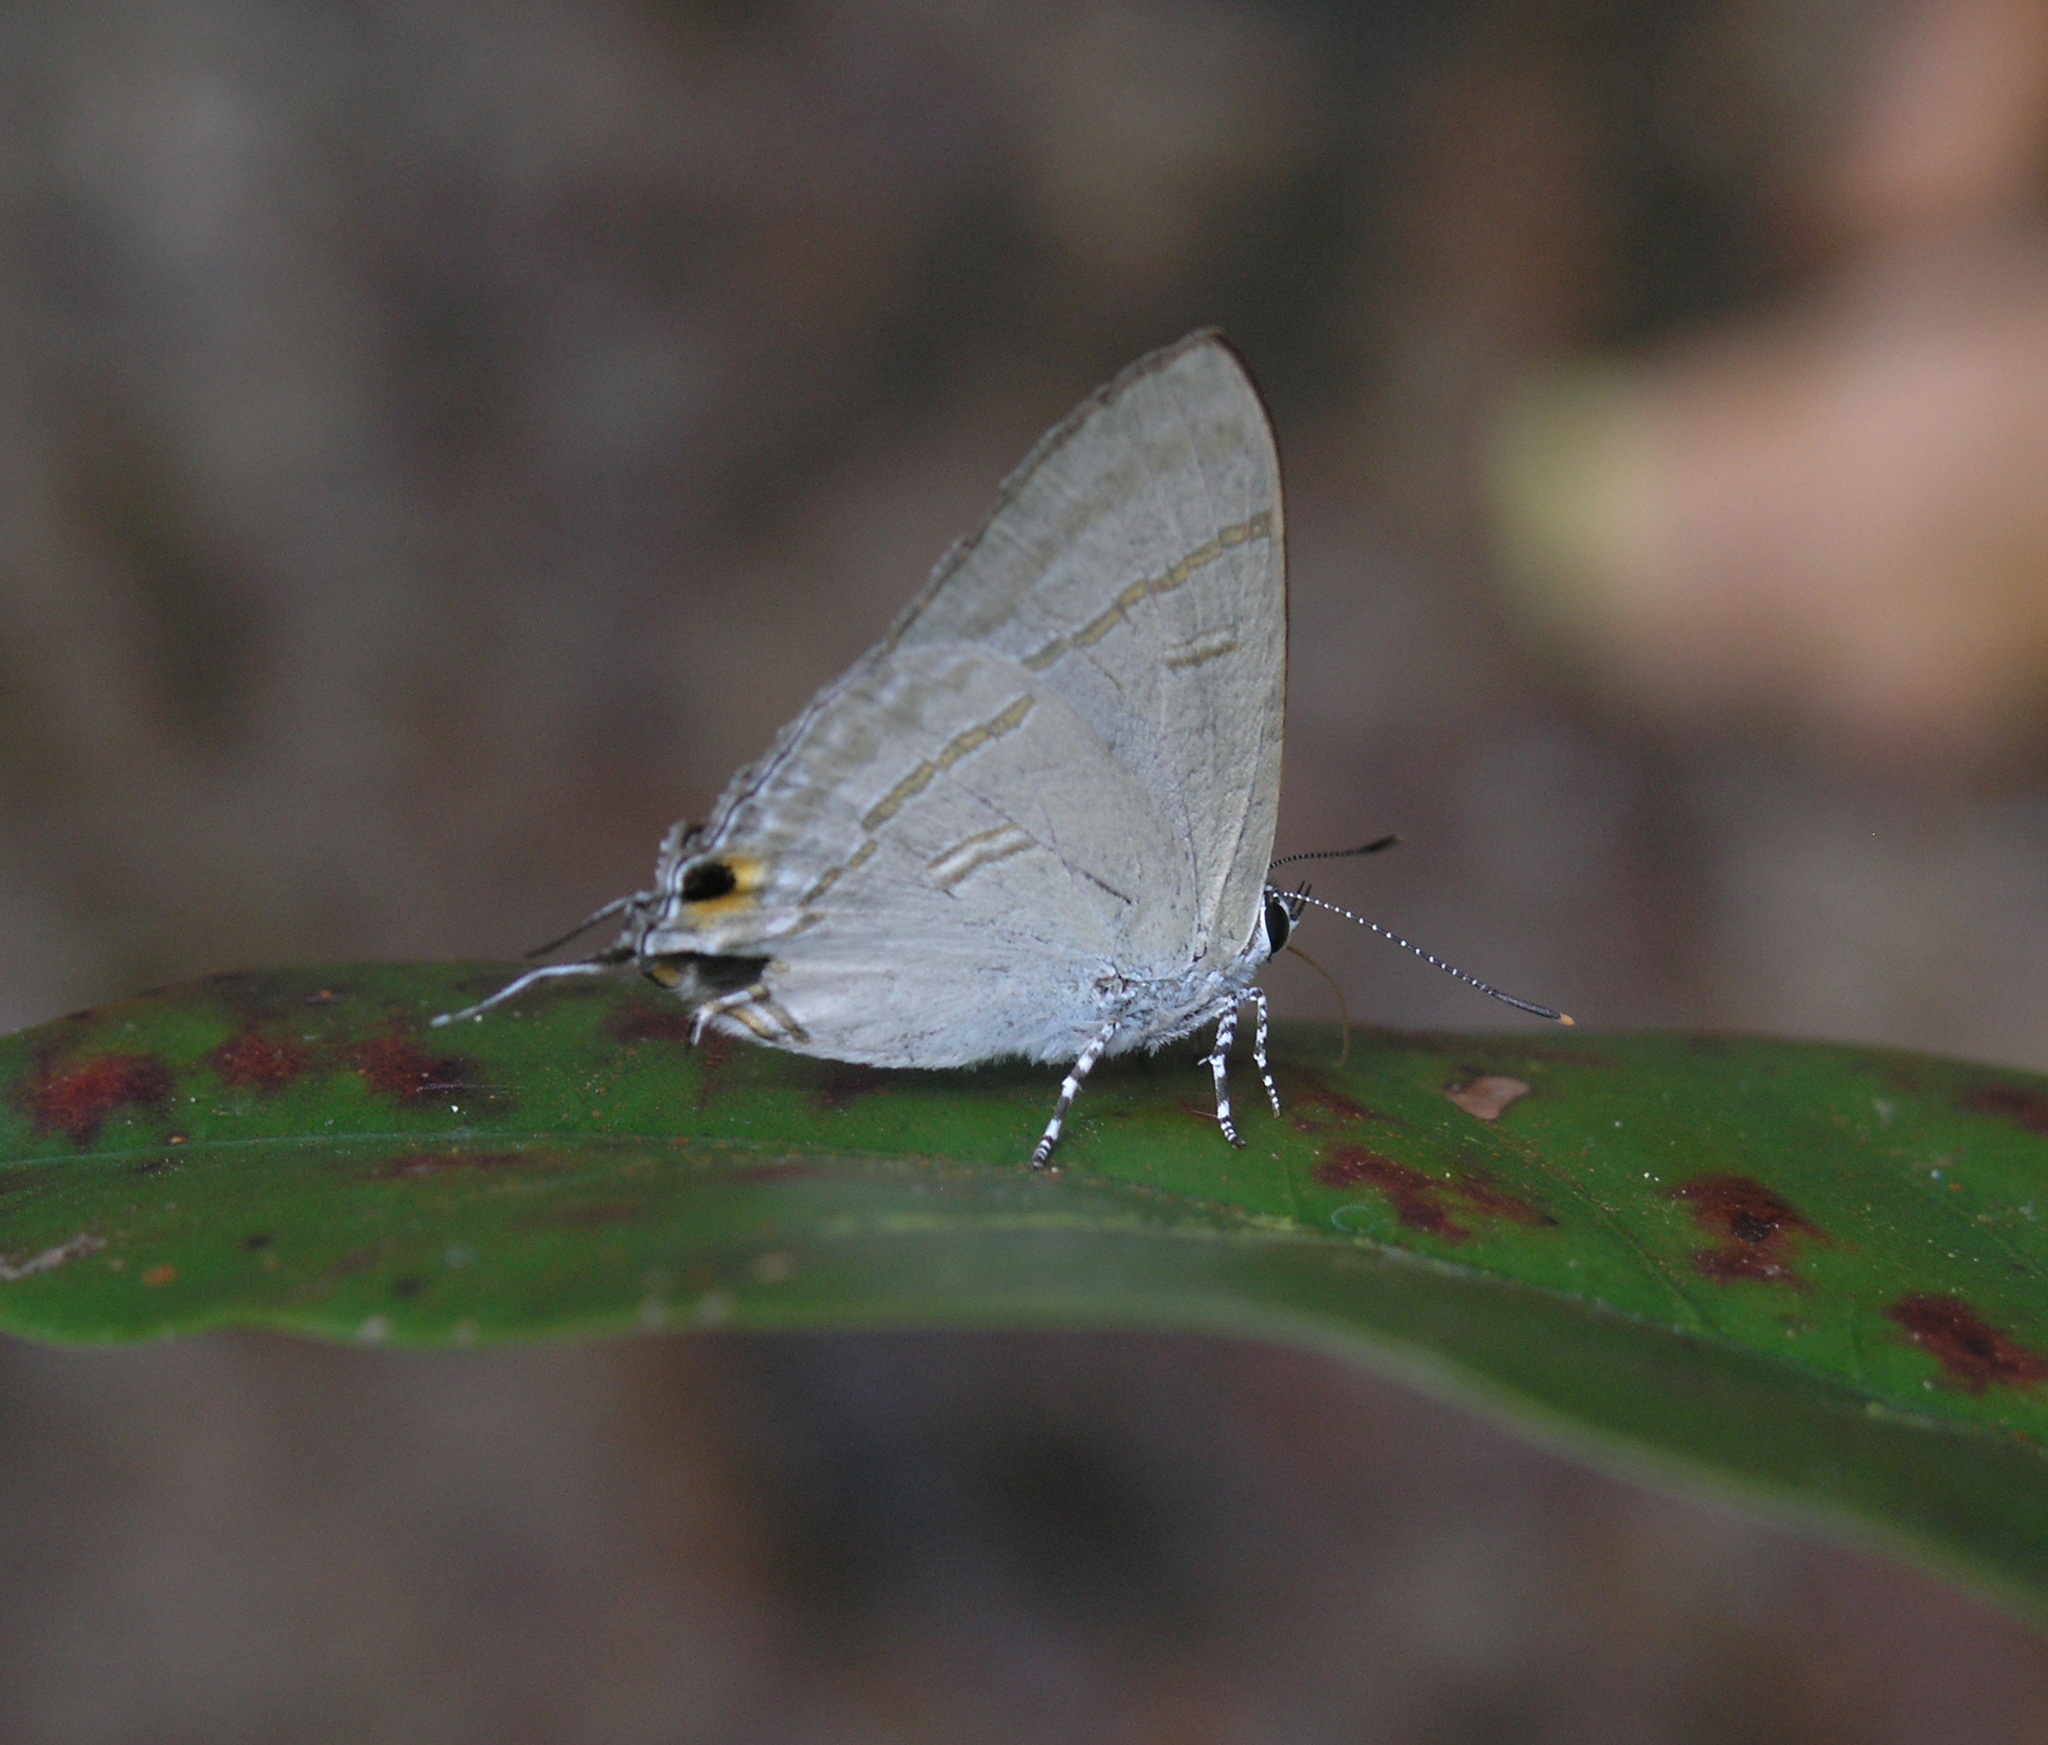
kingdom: Animalia
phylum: Arthropoda
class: Insecta
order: Lepidoptera
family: Lycaenidae
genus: Hypolycaena
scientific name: Hypolycaena erylus
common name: Common tit
